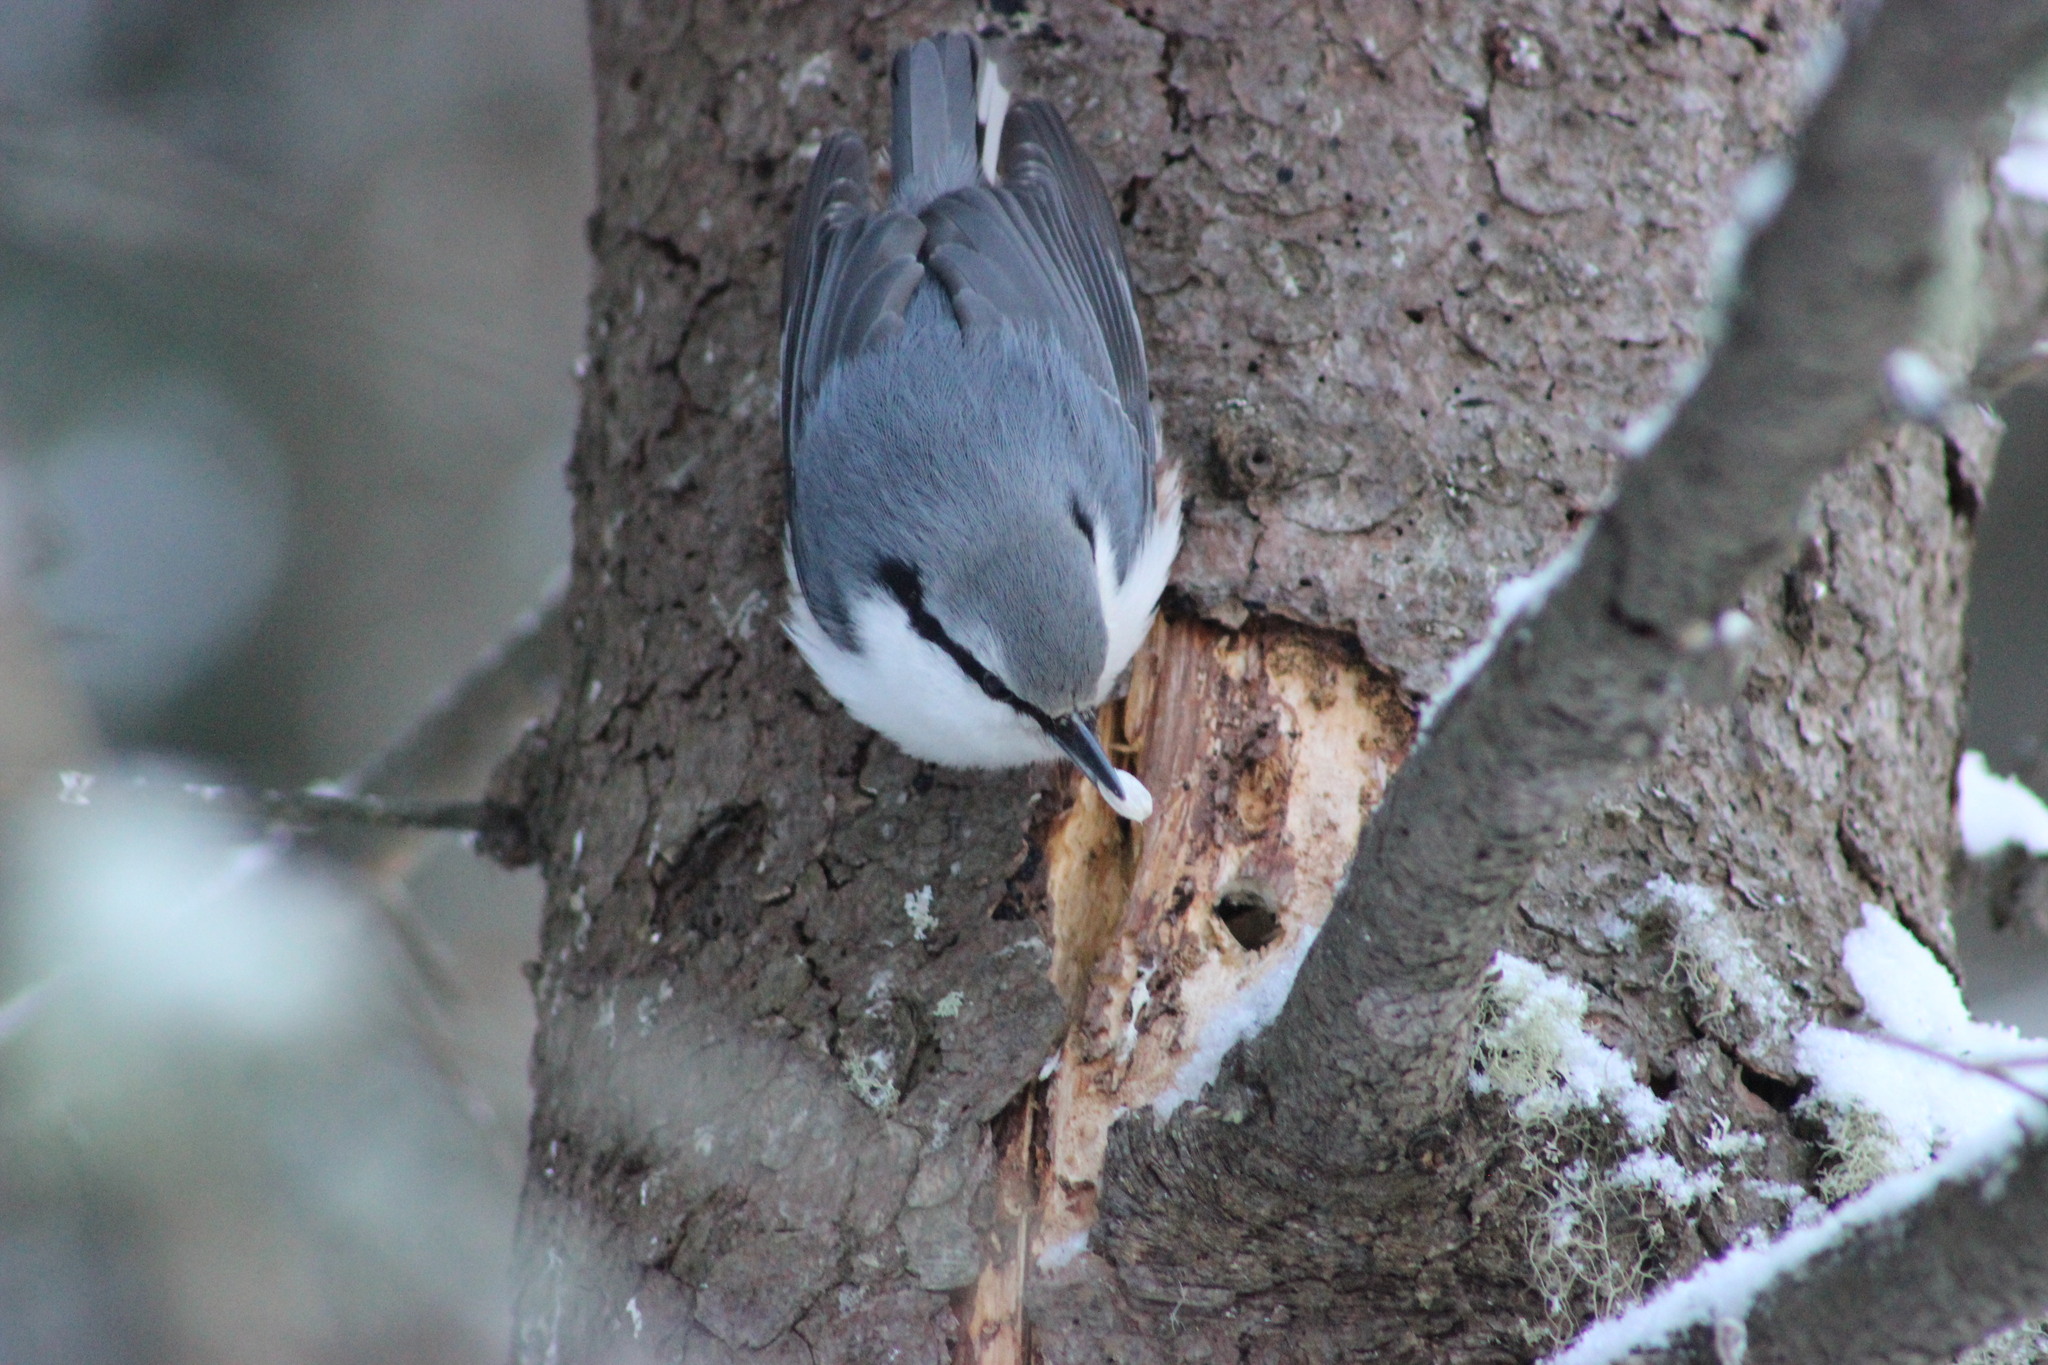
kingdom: Animalia
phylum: Chordata
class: Aves
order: Passeriformes
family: Sittidae
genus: Sitta
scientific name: Sitta europaea
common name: Eurasian nuthatch
